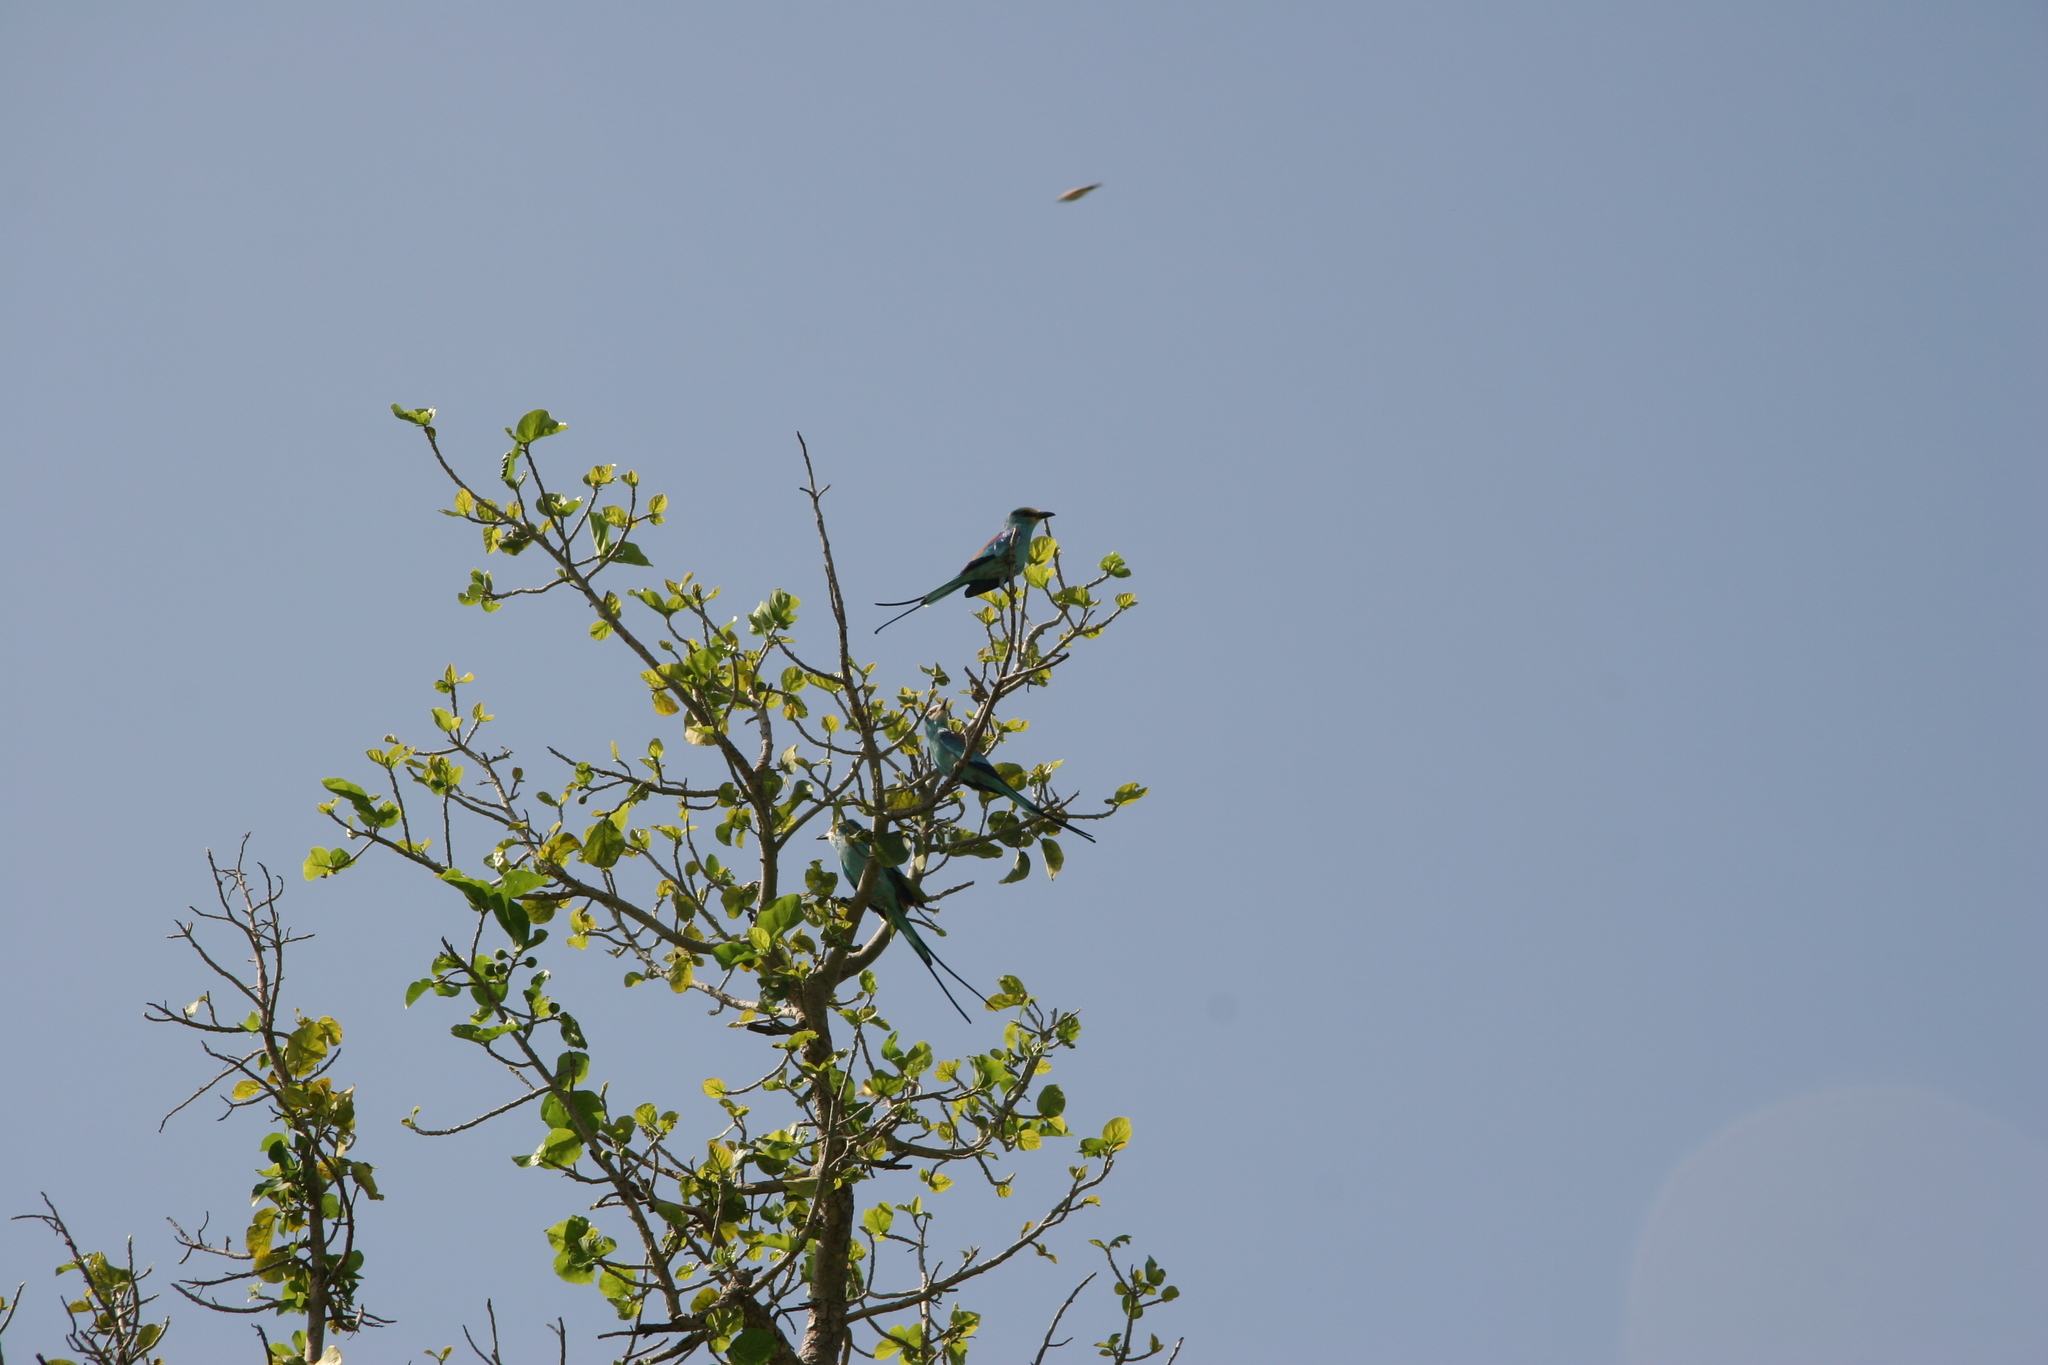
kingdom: Animalia
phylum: Chordata
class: Aves
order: Coraciiformes
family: Coraciidae
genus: Coracias
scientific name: Coracias abyssinicus
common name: Abyssinian roller
